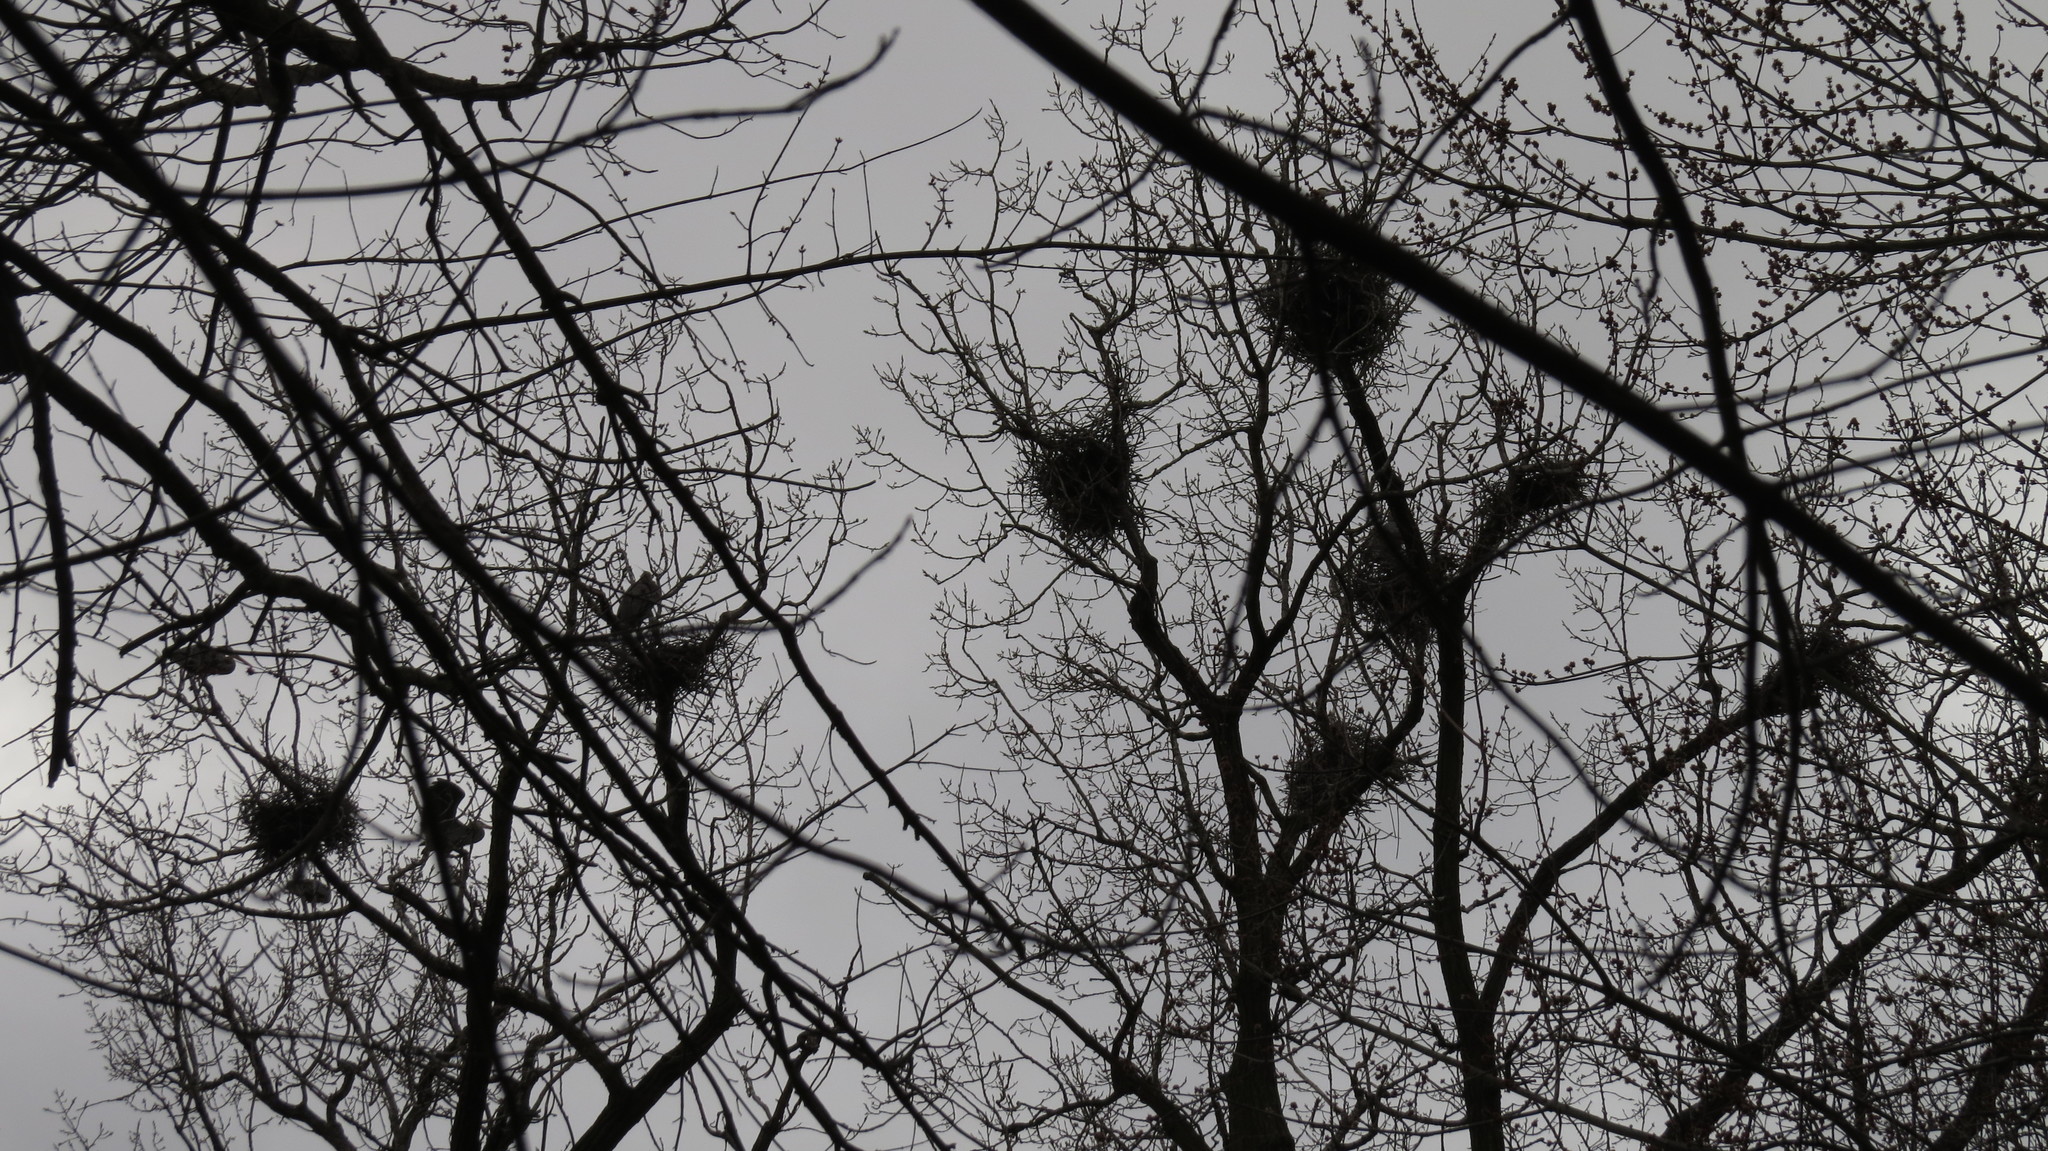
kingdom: Animalia
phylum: Chordata
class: Aves
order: Pelecaniformes
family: Ardeidae
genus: Ardea
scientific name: Ardea herodias
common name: Great blue heron
